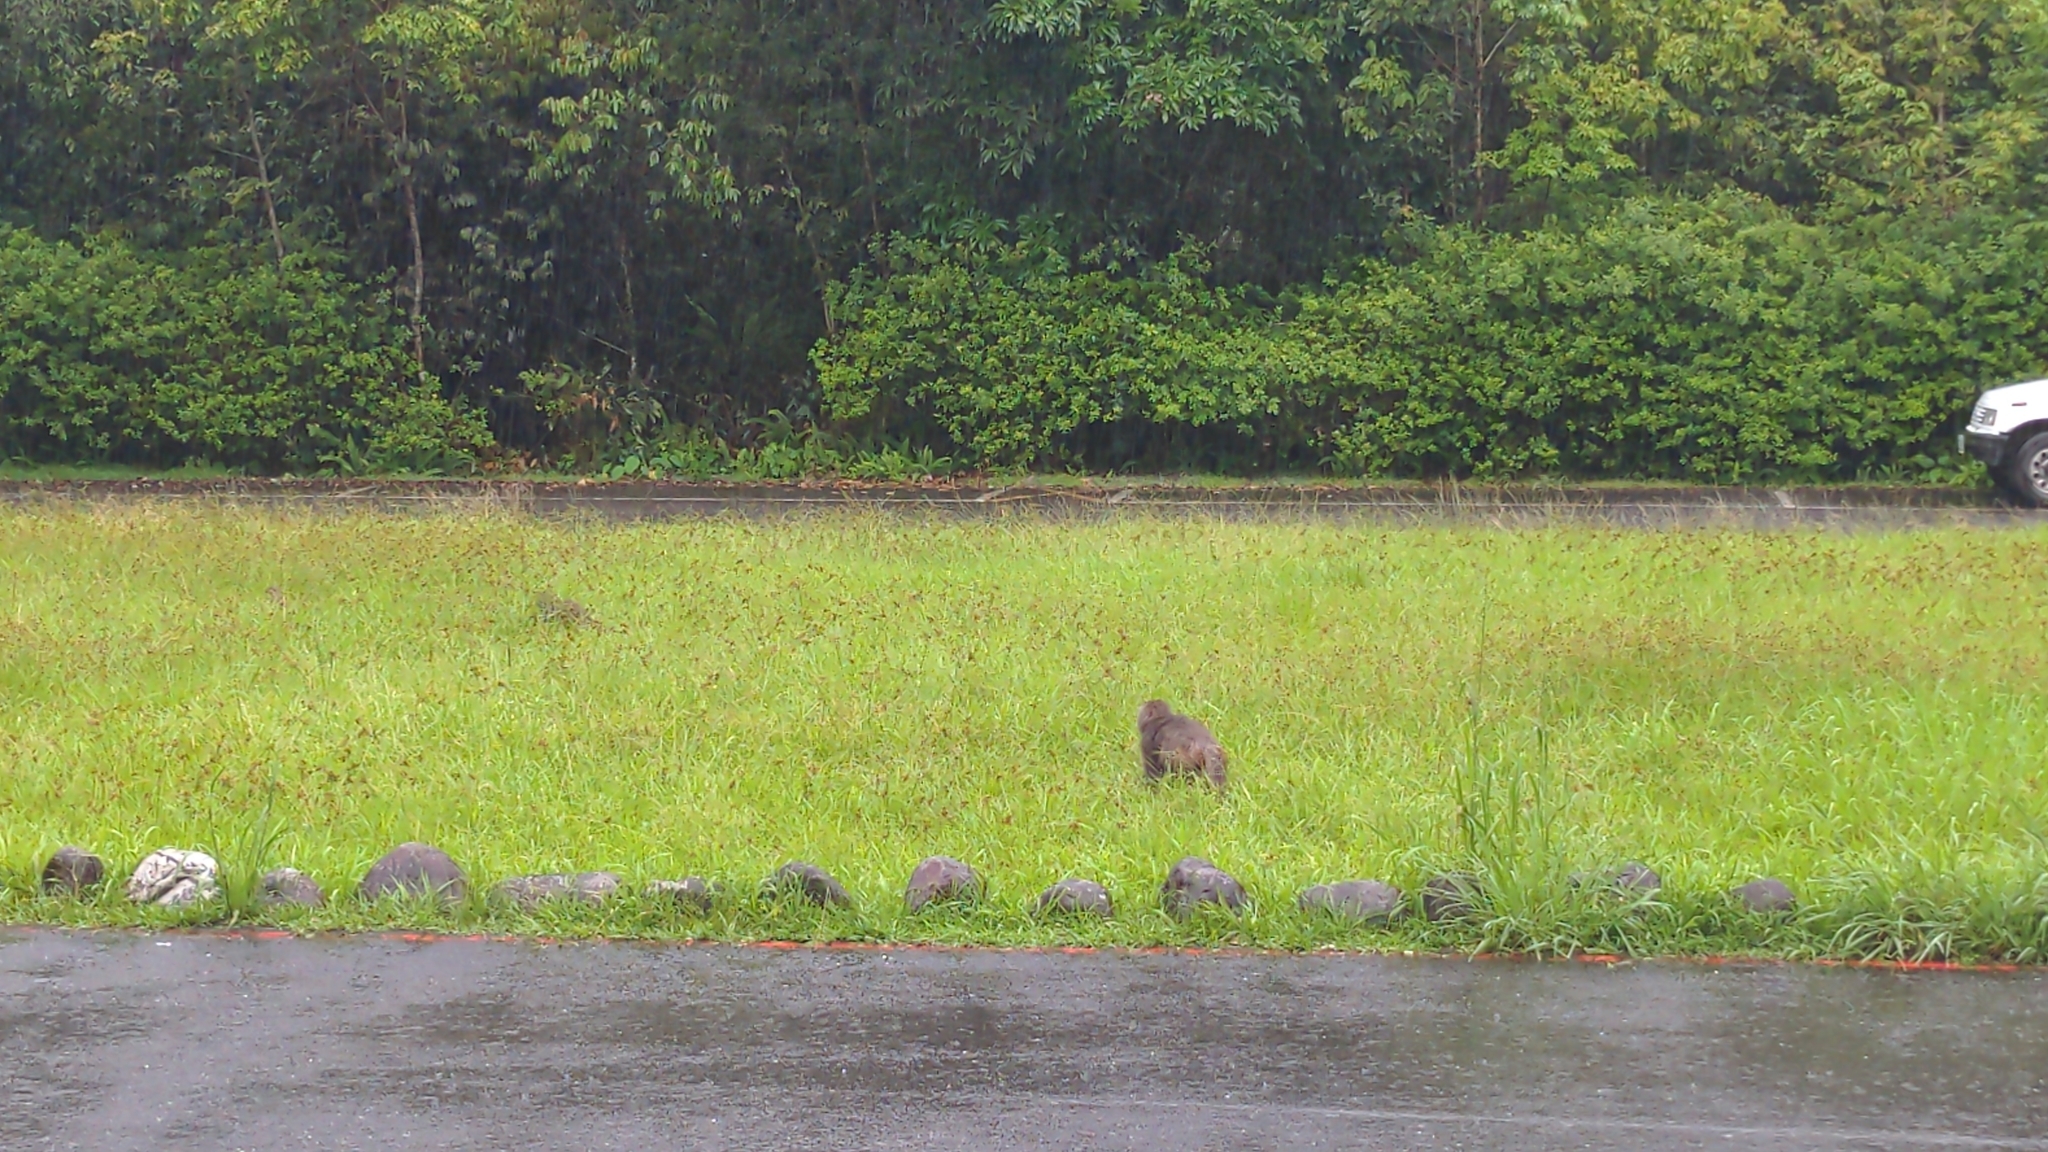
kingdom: Animalia
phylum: Chordata
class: Mammalia
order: Primates
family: Cercopithecidae
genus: Macaca
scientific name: Macaca cyclopis
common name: Formosan rock macaque
